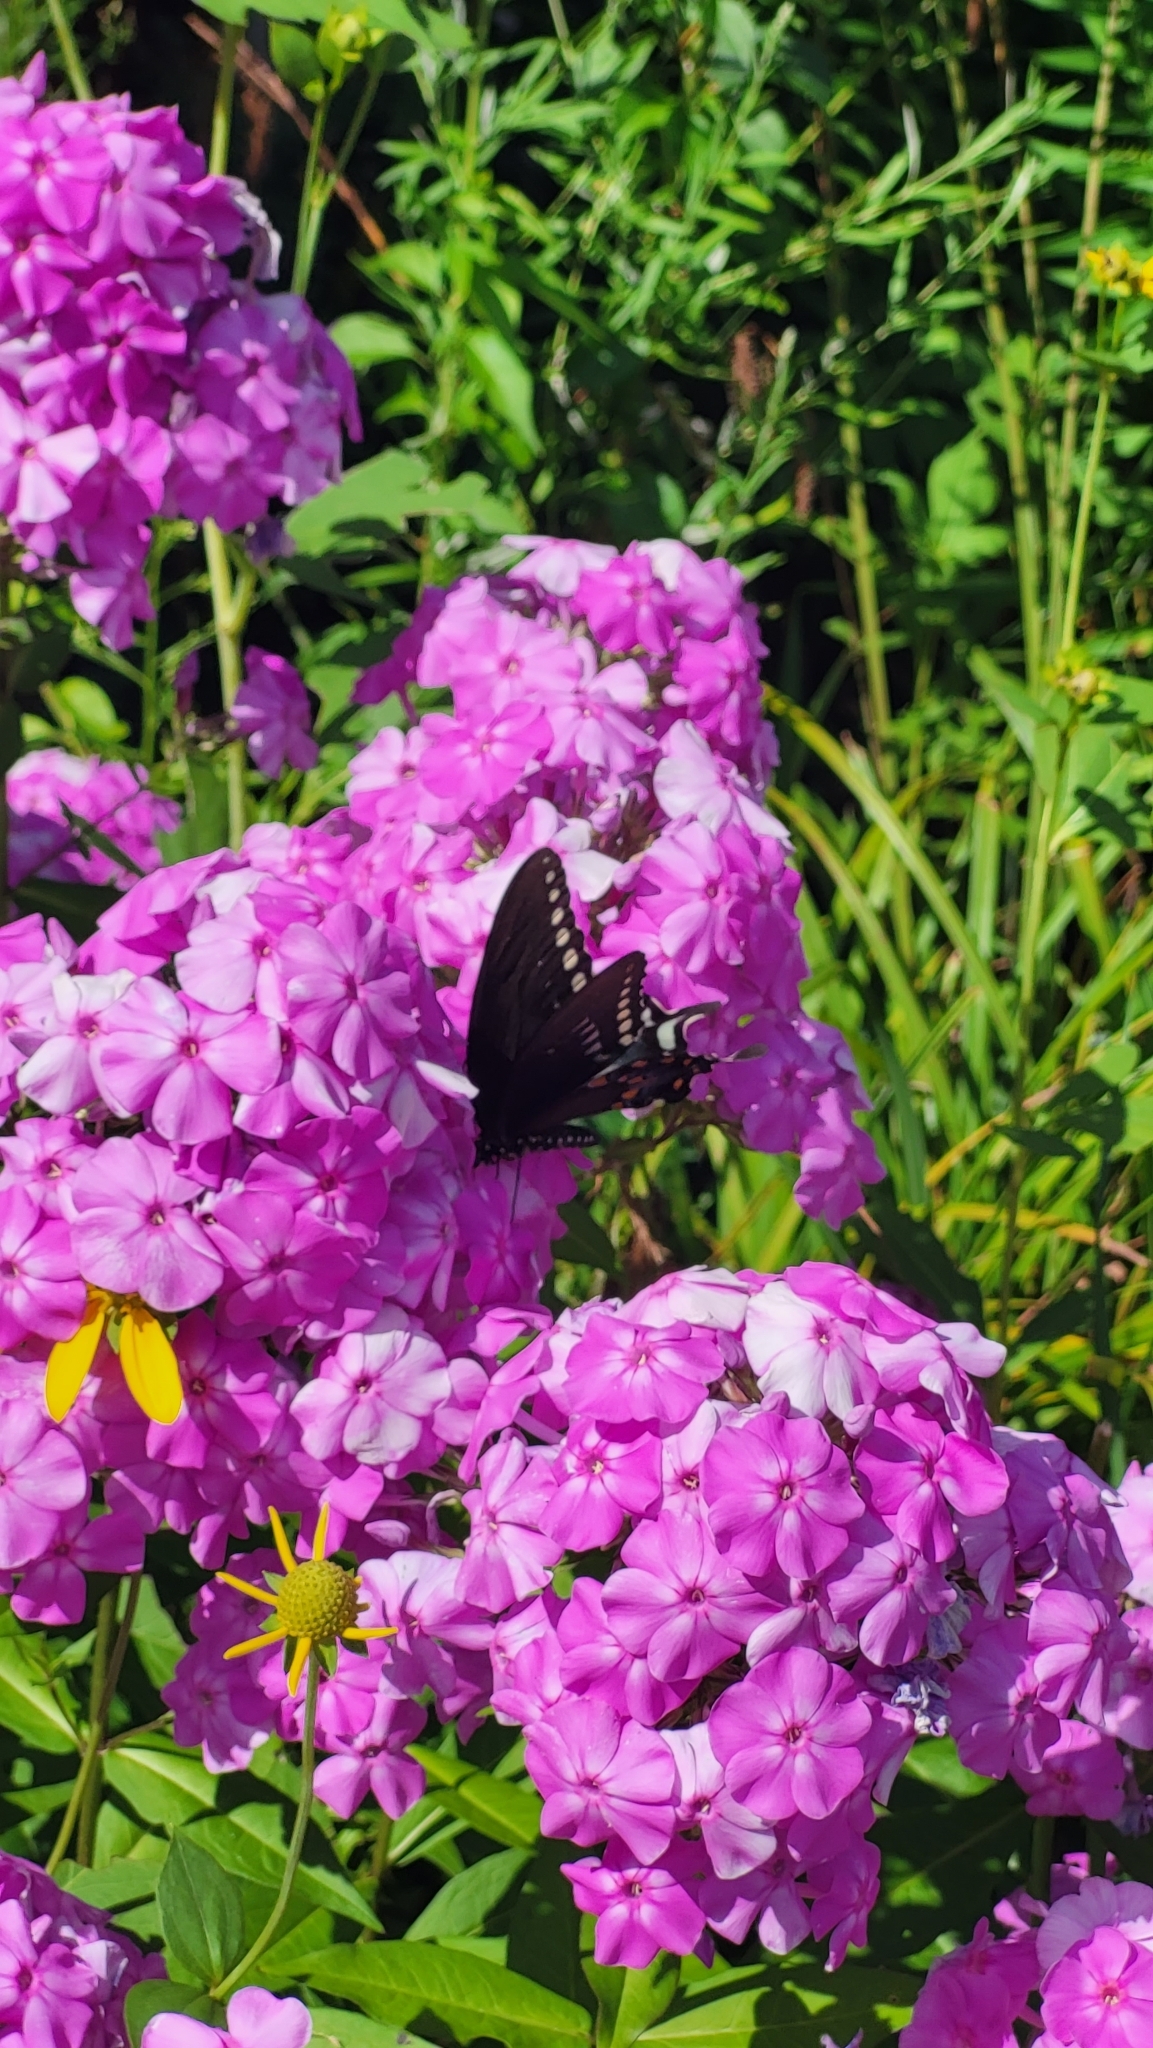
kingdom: Animalia
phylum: Arthropoda
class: Insecta
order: Lepidoptera
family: Papilionidae
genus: Papilio
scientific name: Papilio troilus
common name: Spicebush swallowtail
